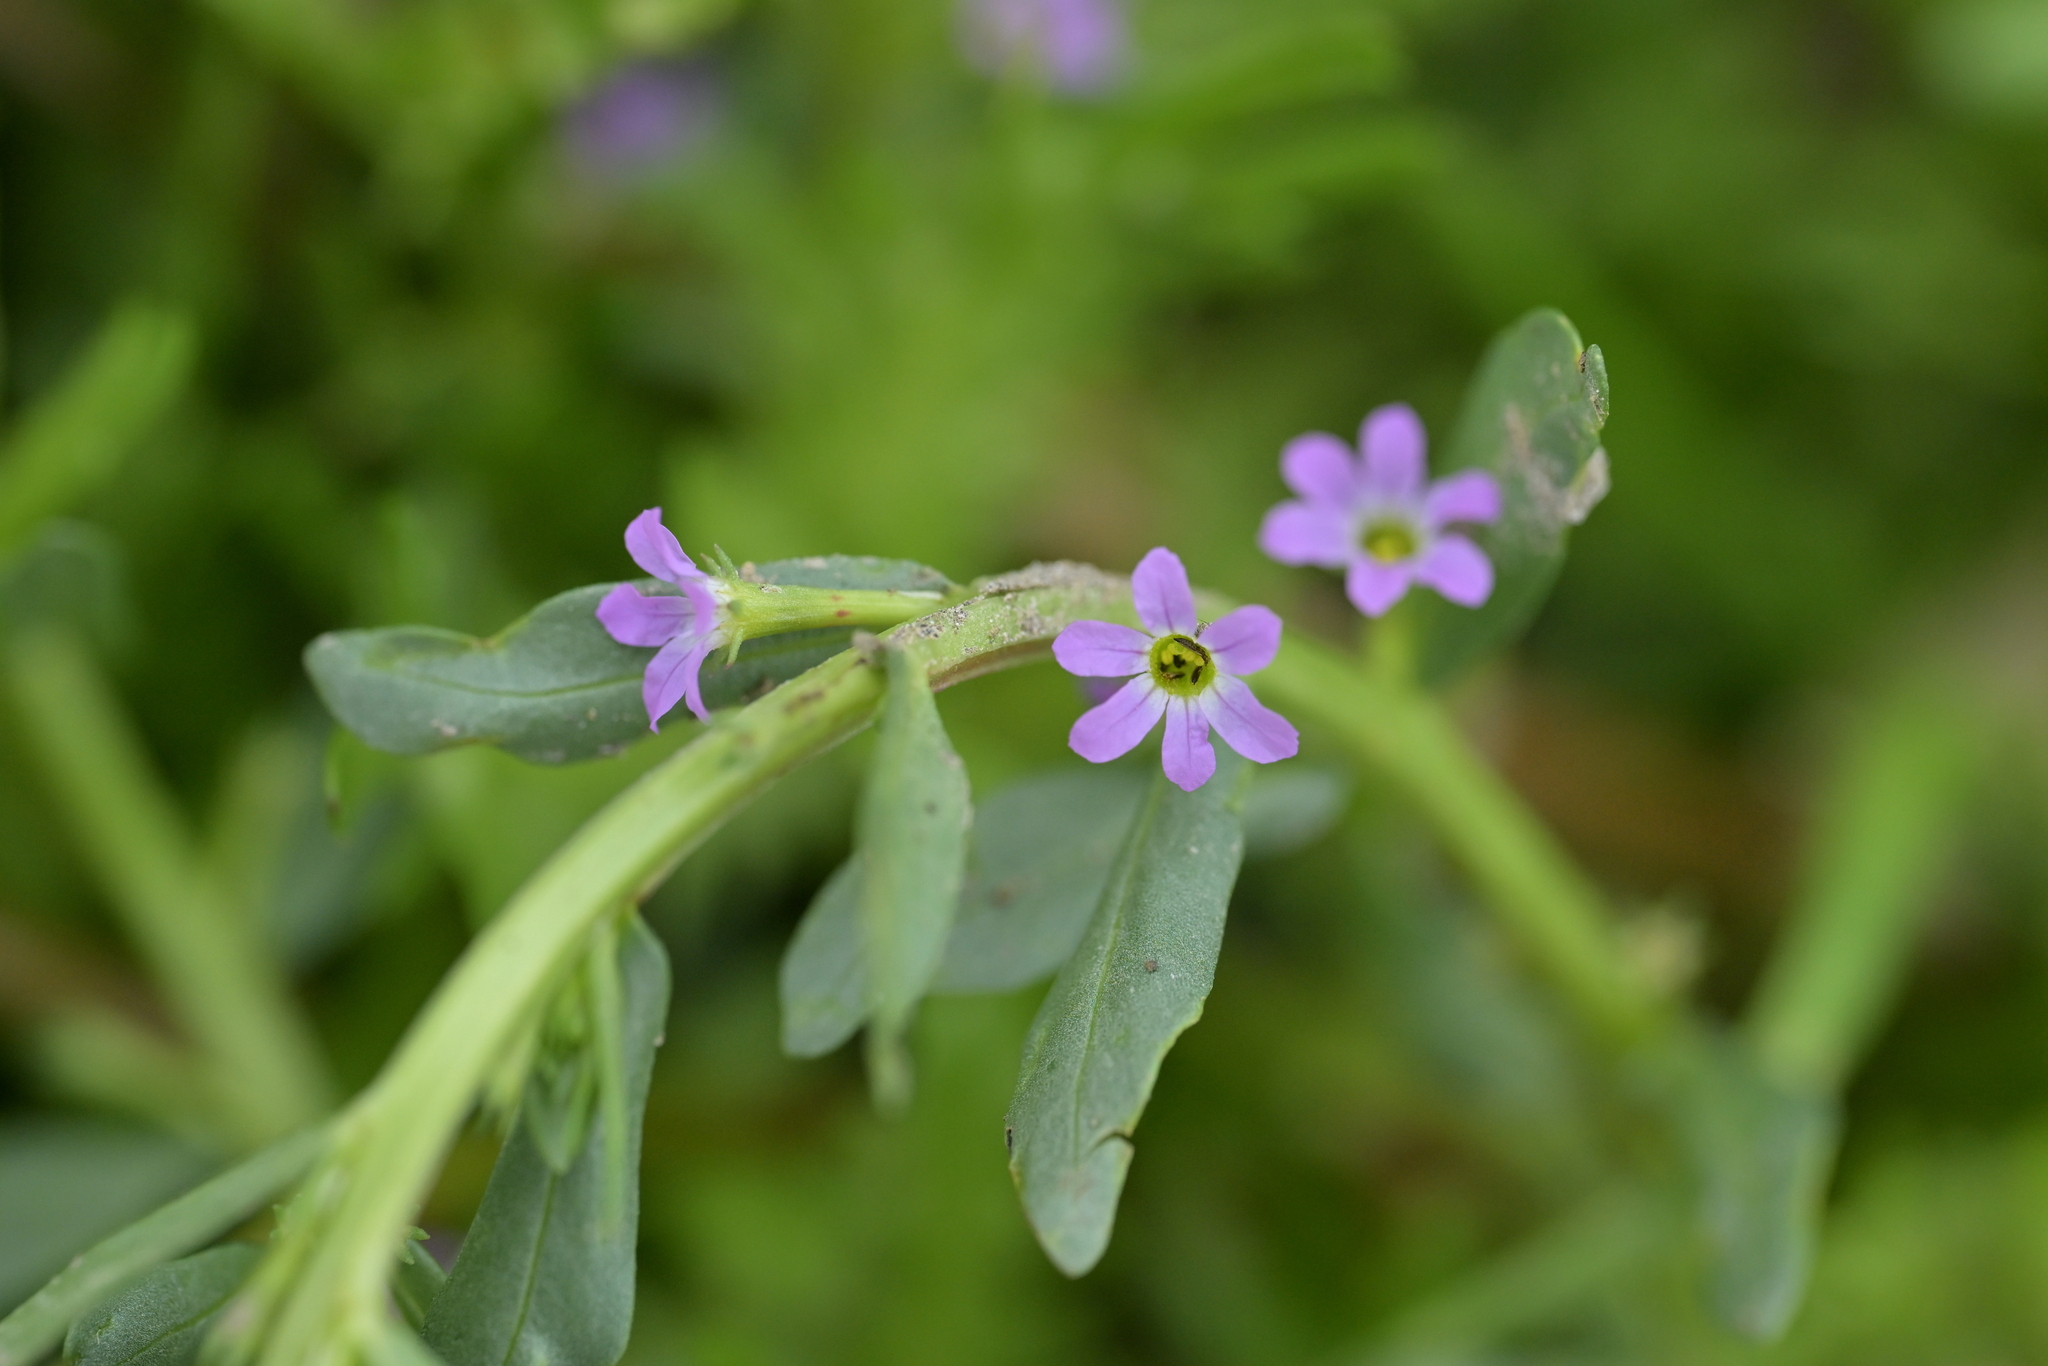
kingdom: Plantae
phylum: Tracheophyta
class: Magnoliopsida
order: Myrtales
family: Lythraceae
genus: Lythrum
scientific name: Lythrum hyssopifolia
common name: Grass-poly
